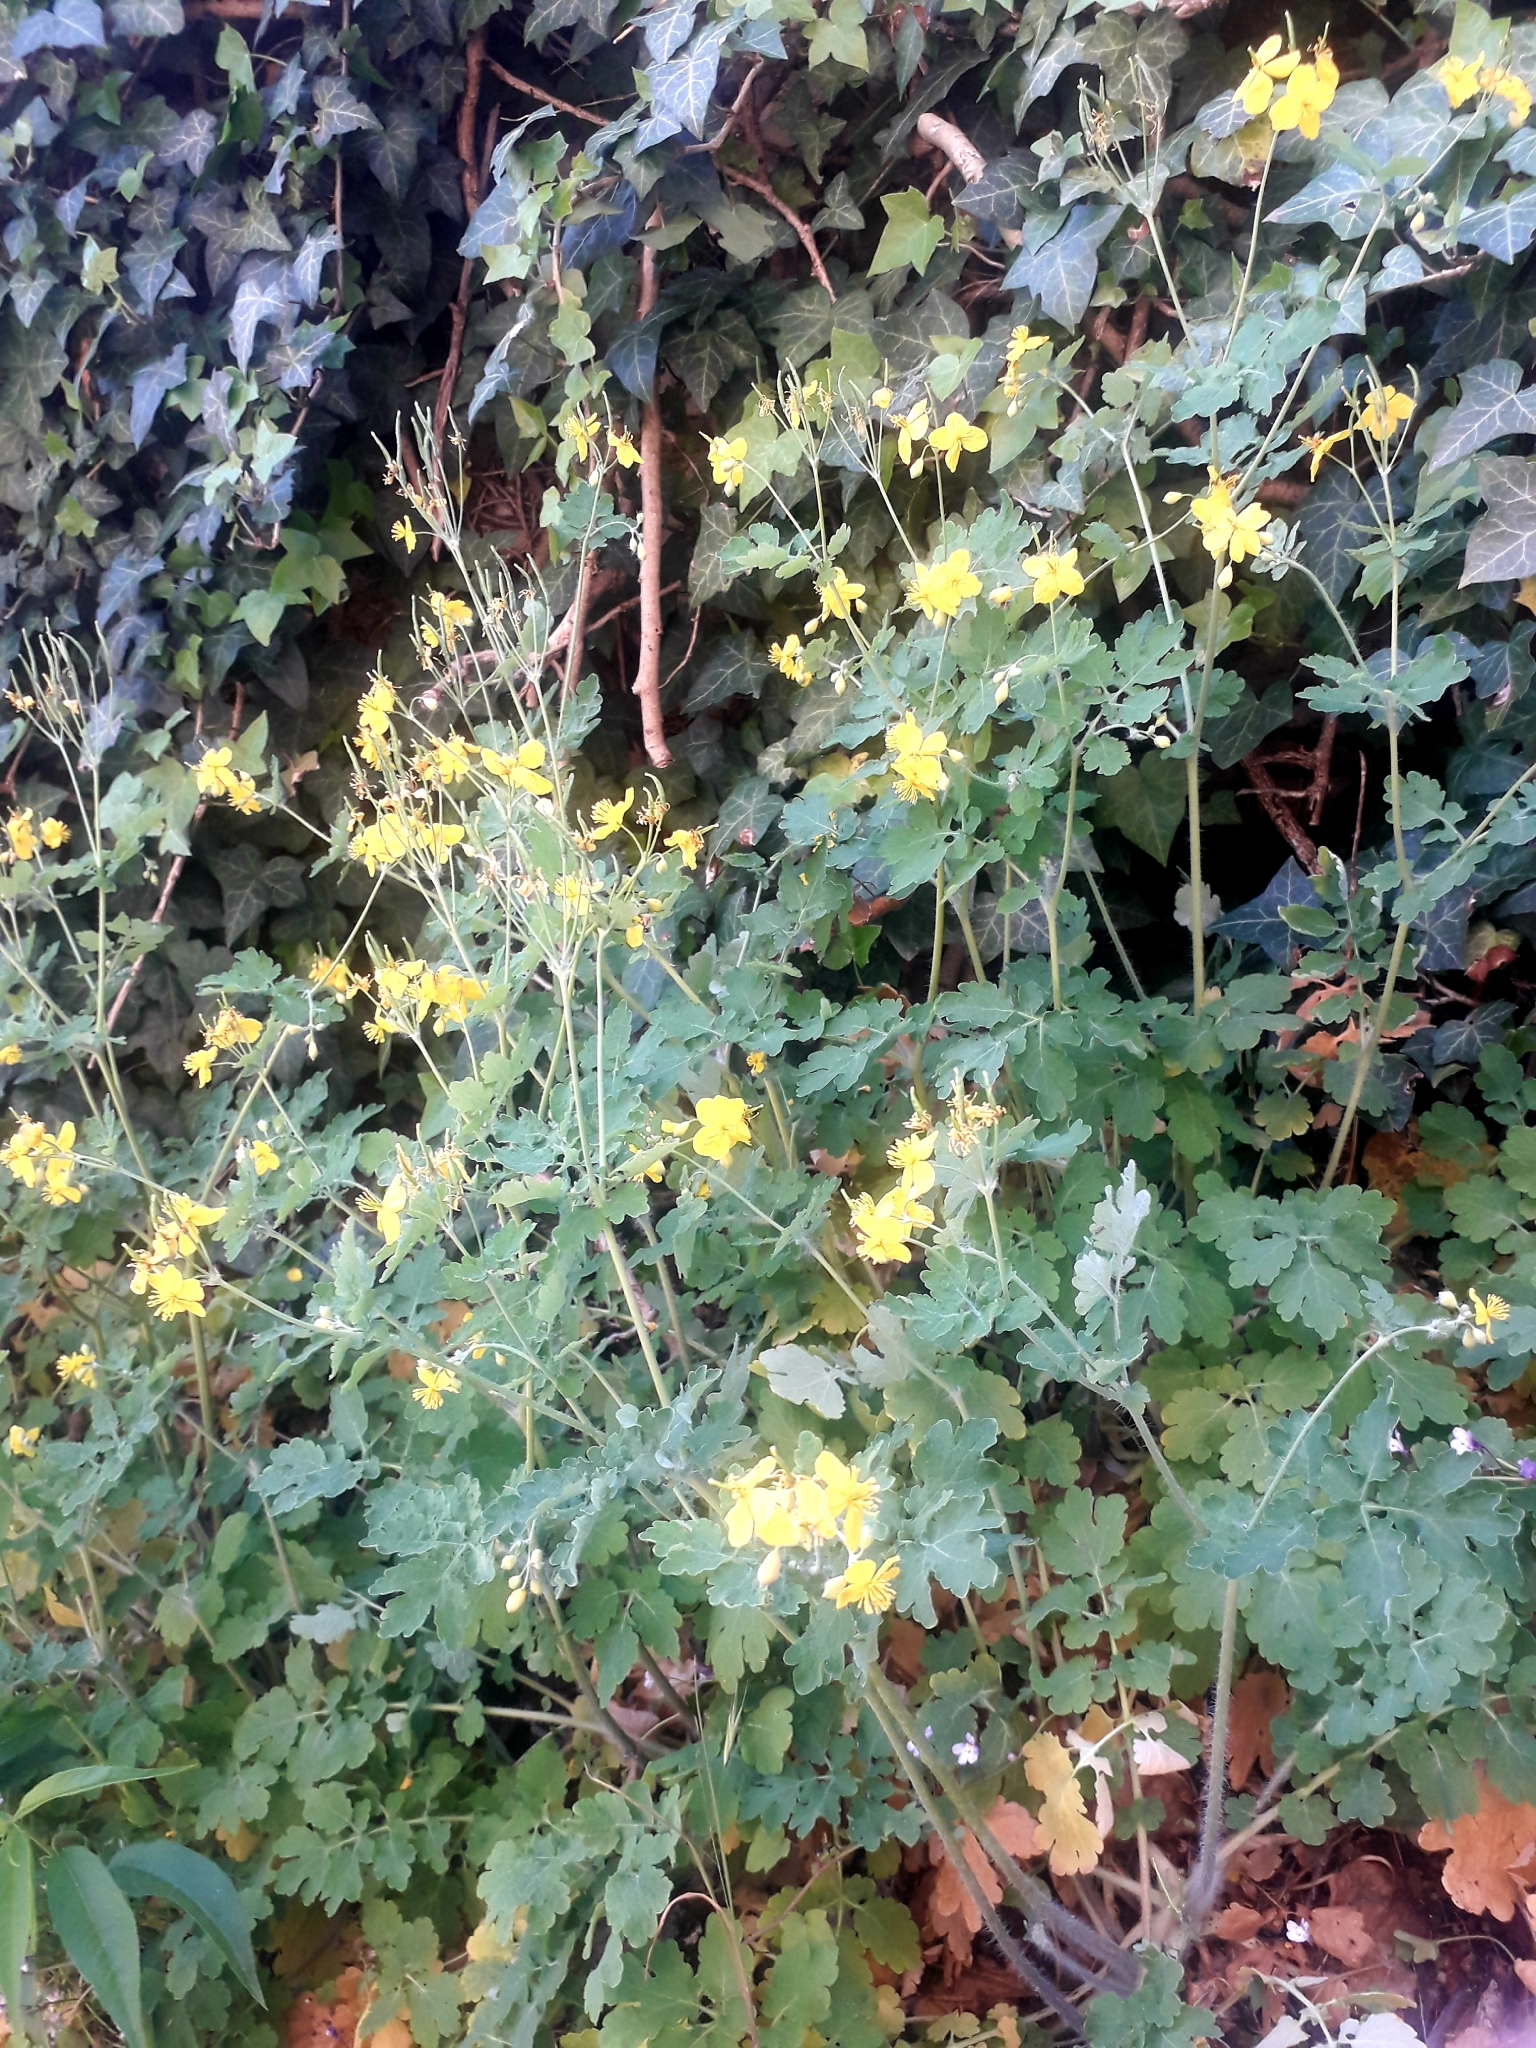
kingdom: Plantae
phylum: Tracheophyta
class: Magnoliopsida
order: Ranunculales
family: Papaveraceae
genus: Chelidonium
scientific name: Chelidonium majus
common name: Greater celandine
